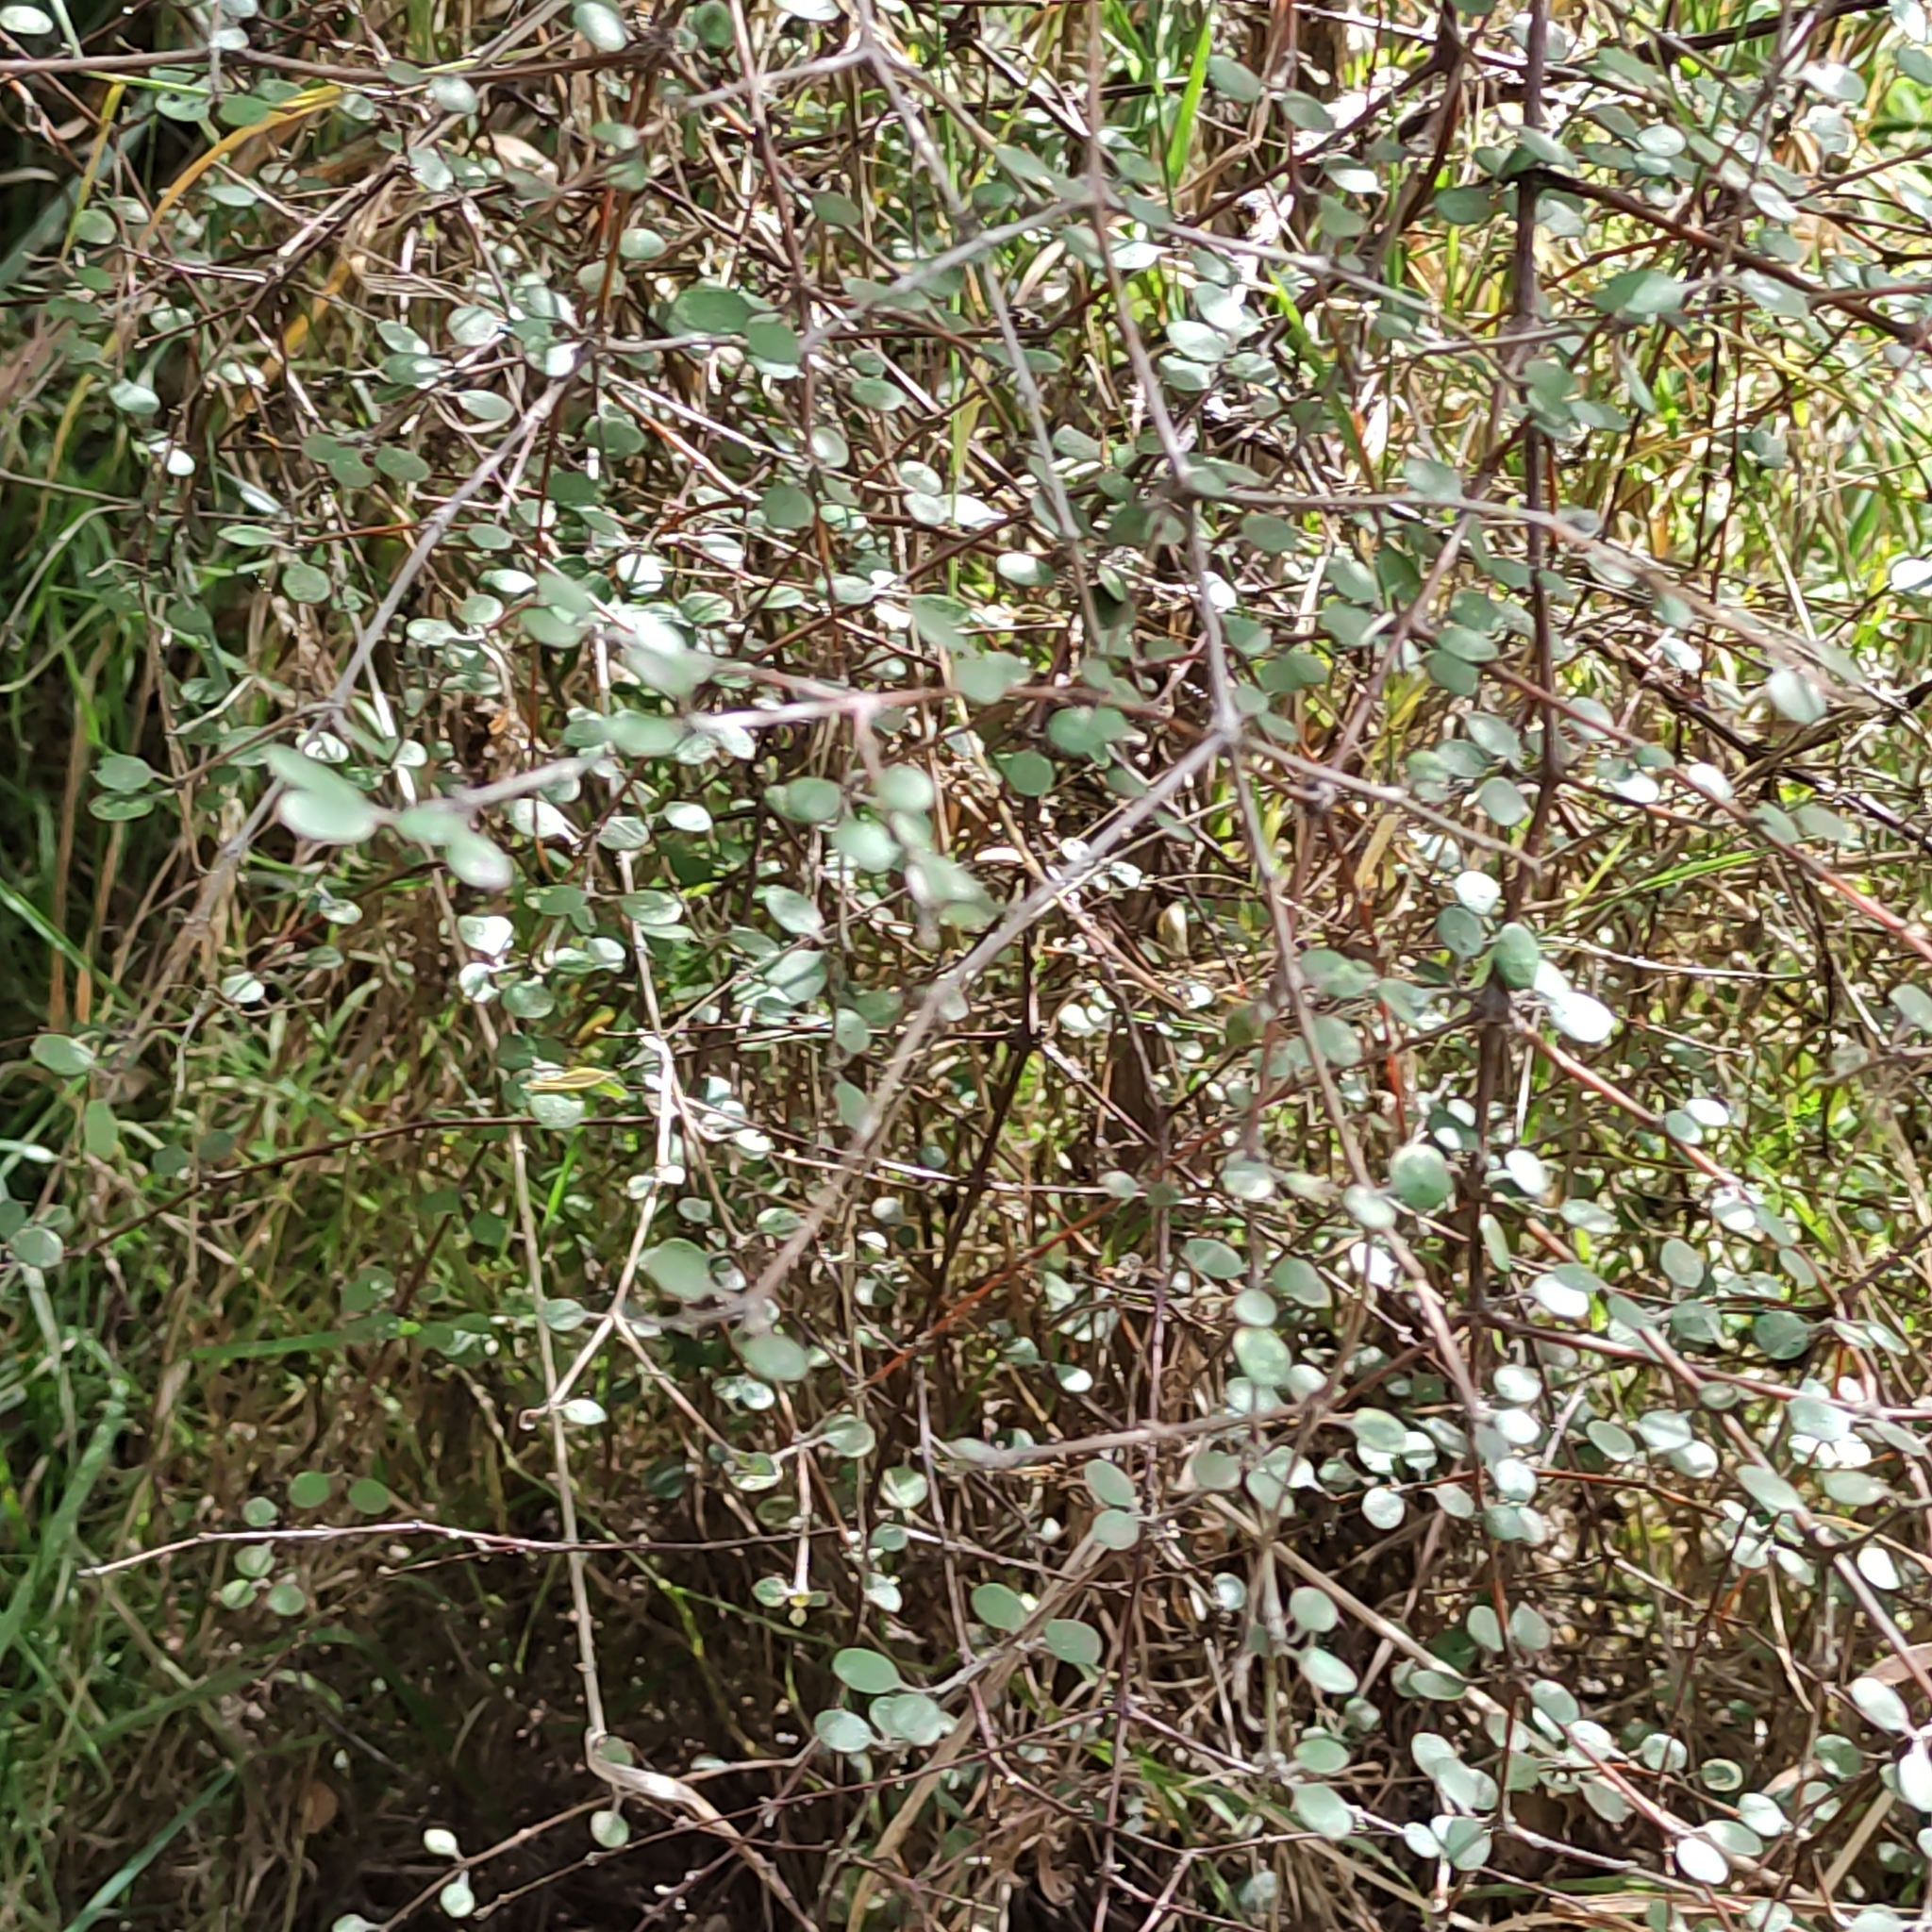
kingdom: Plantae
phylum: Tracheophyta
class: Magnoliopsida
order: Gentianales
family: Rubiaceae
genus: Coprosma
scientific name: Coprosma crassifolia
